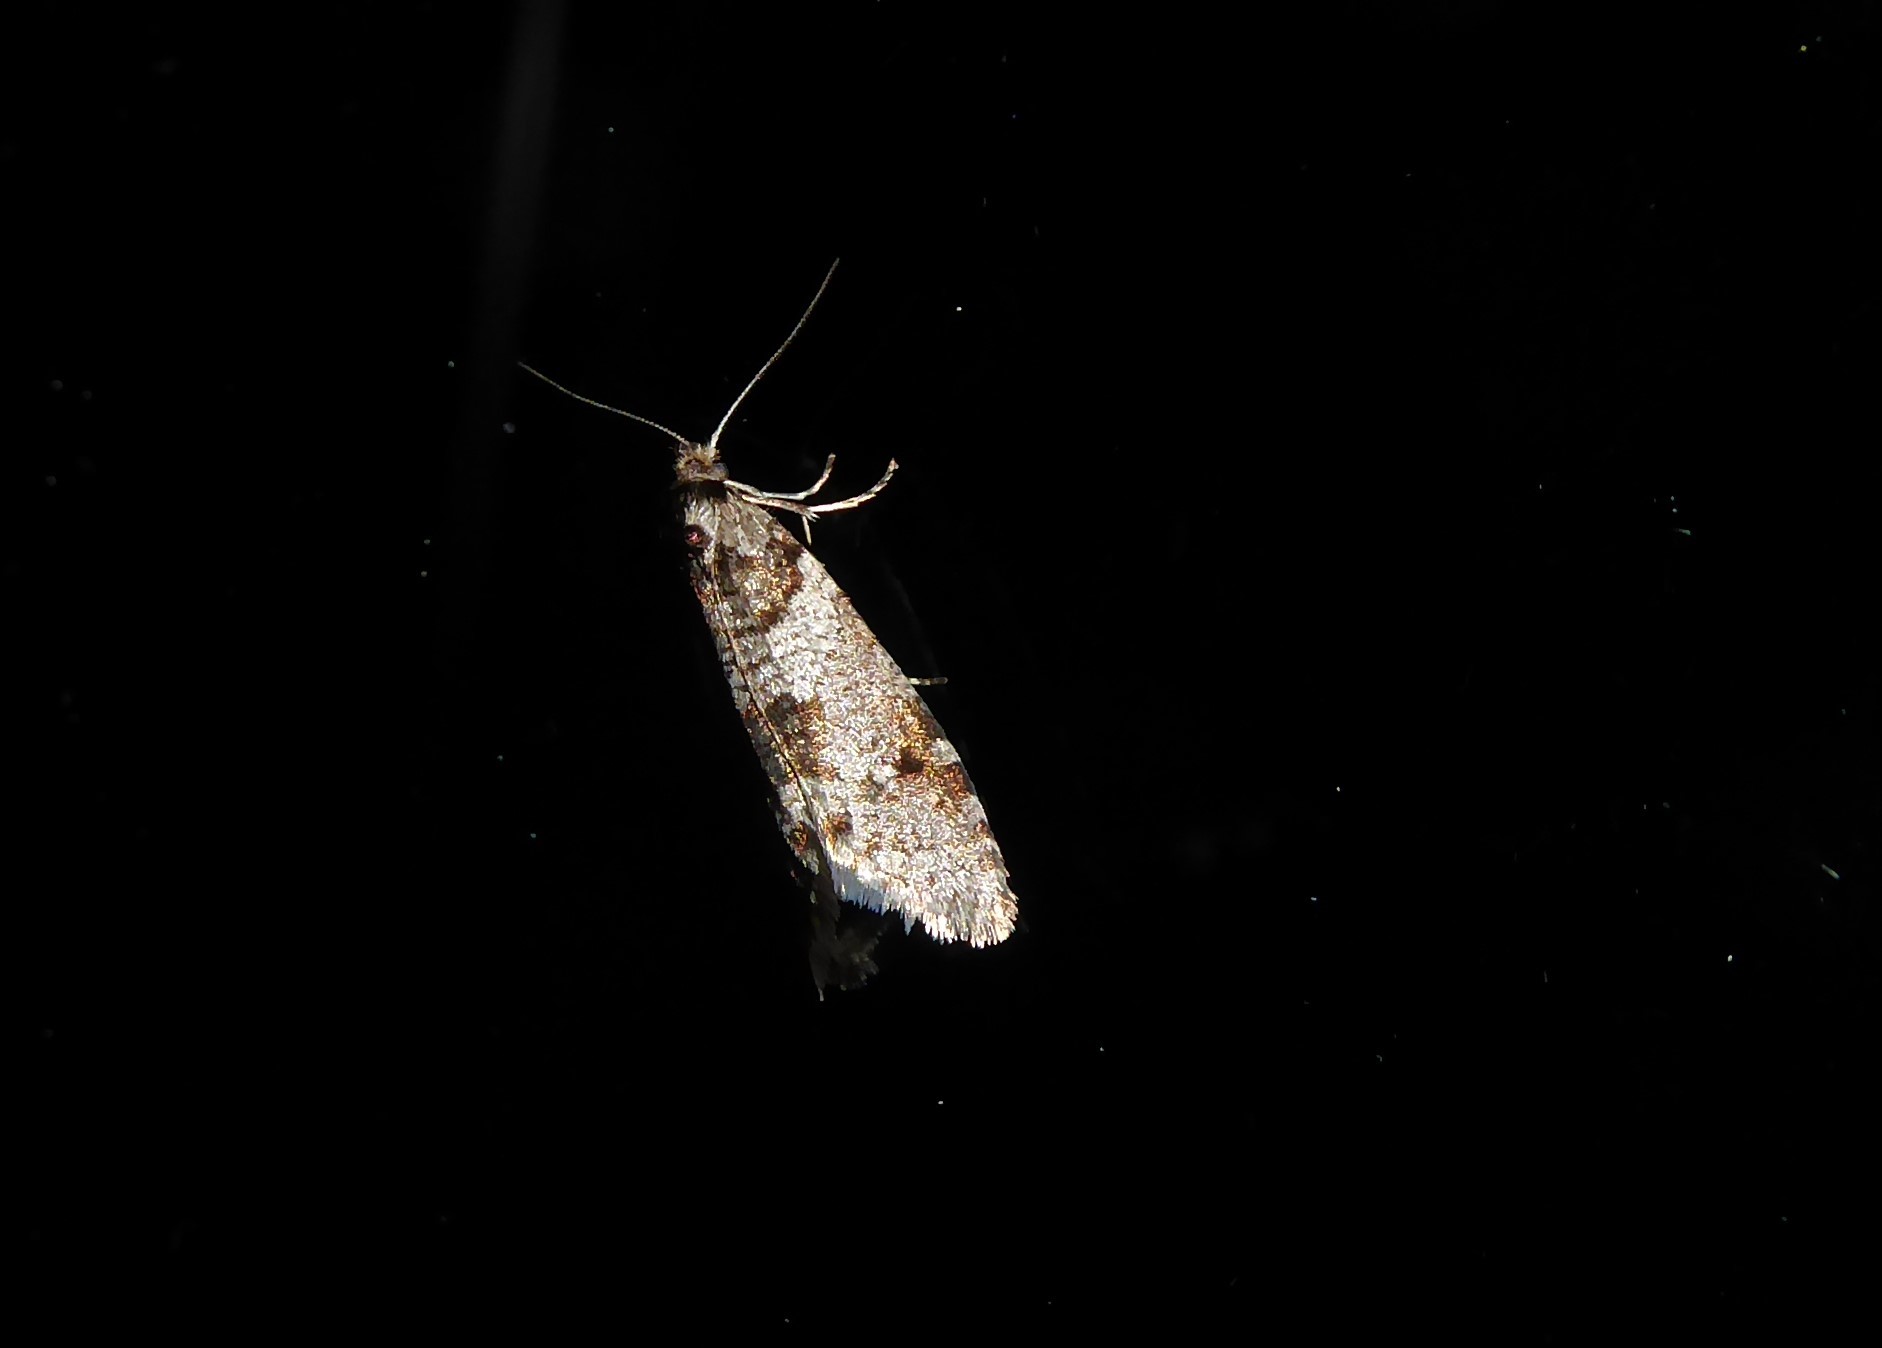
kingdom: Animalia
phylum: Arthropoda
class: Insecta
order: Lepidoptera
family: Psychidae
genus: Lepidoscia
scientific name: Lepidoscia heliochares
